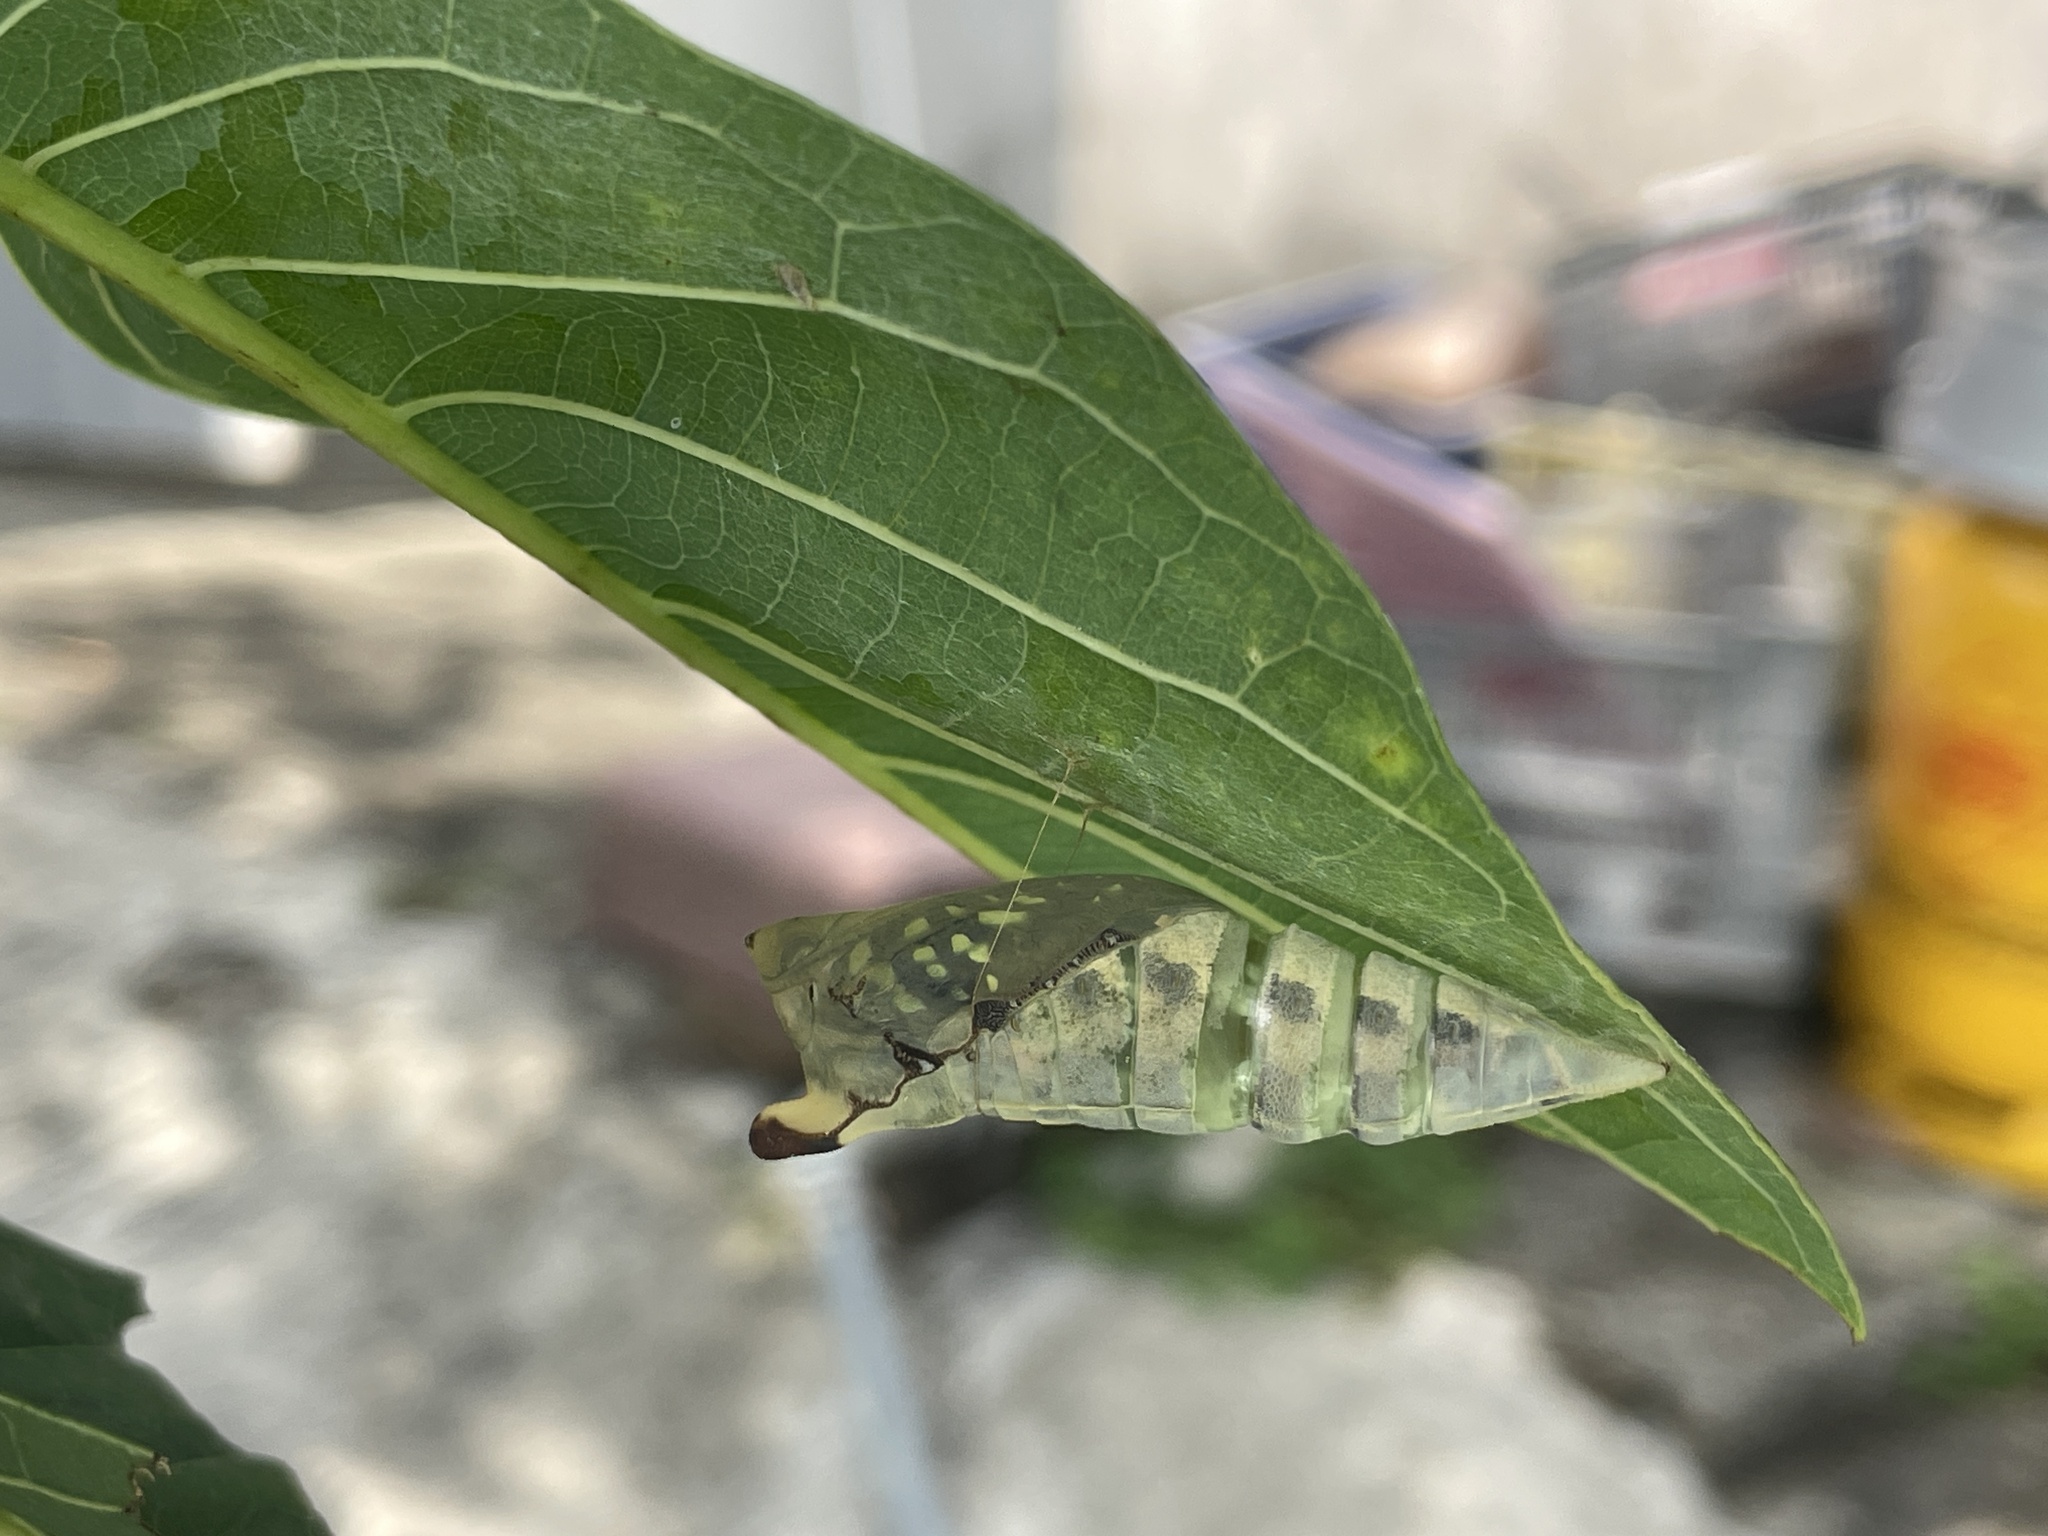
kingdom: Animalia
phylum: Arthropoda
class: Insecta
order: Lepidoptera
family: Papilionidae
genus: Graphium
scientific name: Graphium agamemnon
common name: Tailed jay
